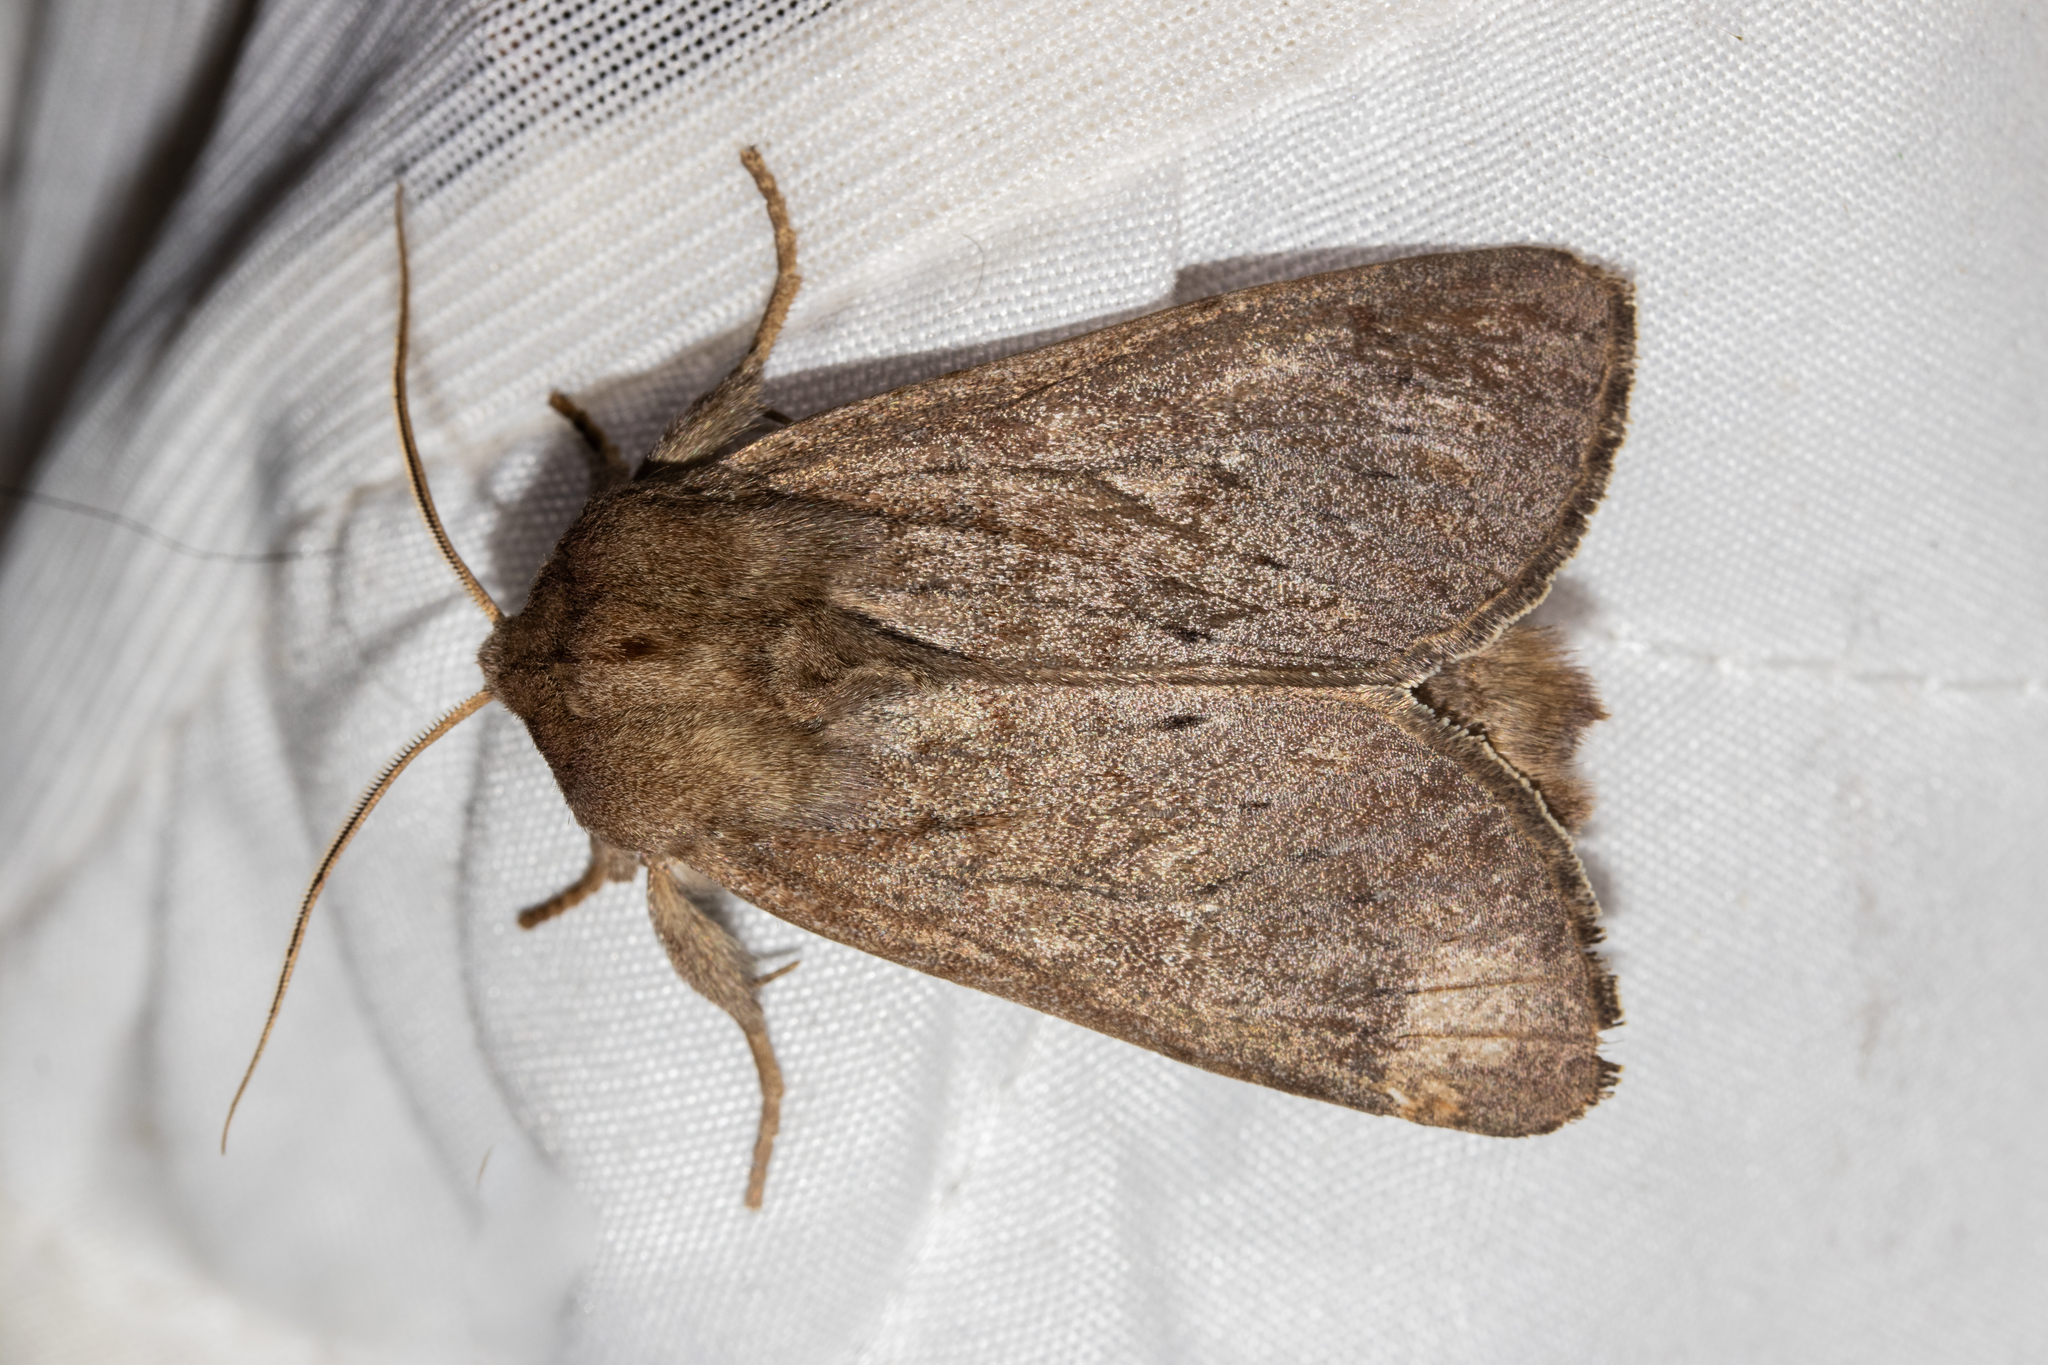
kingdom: Animalia
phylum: Arthropoda
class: Insecta
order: Lepidoptera
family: Noctuidae
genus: Ichneutica
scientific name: Ichneutica nullifera
